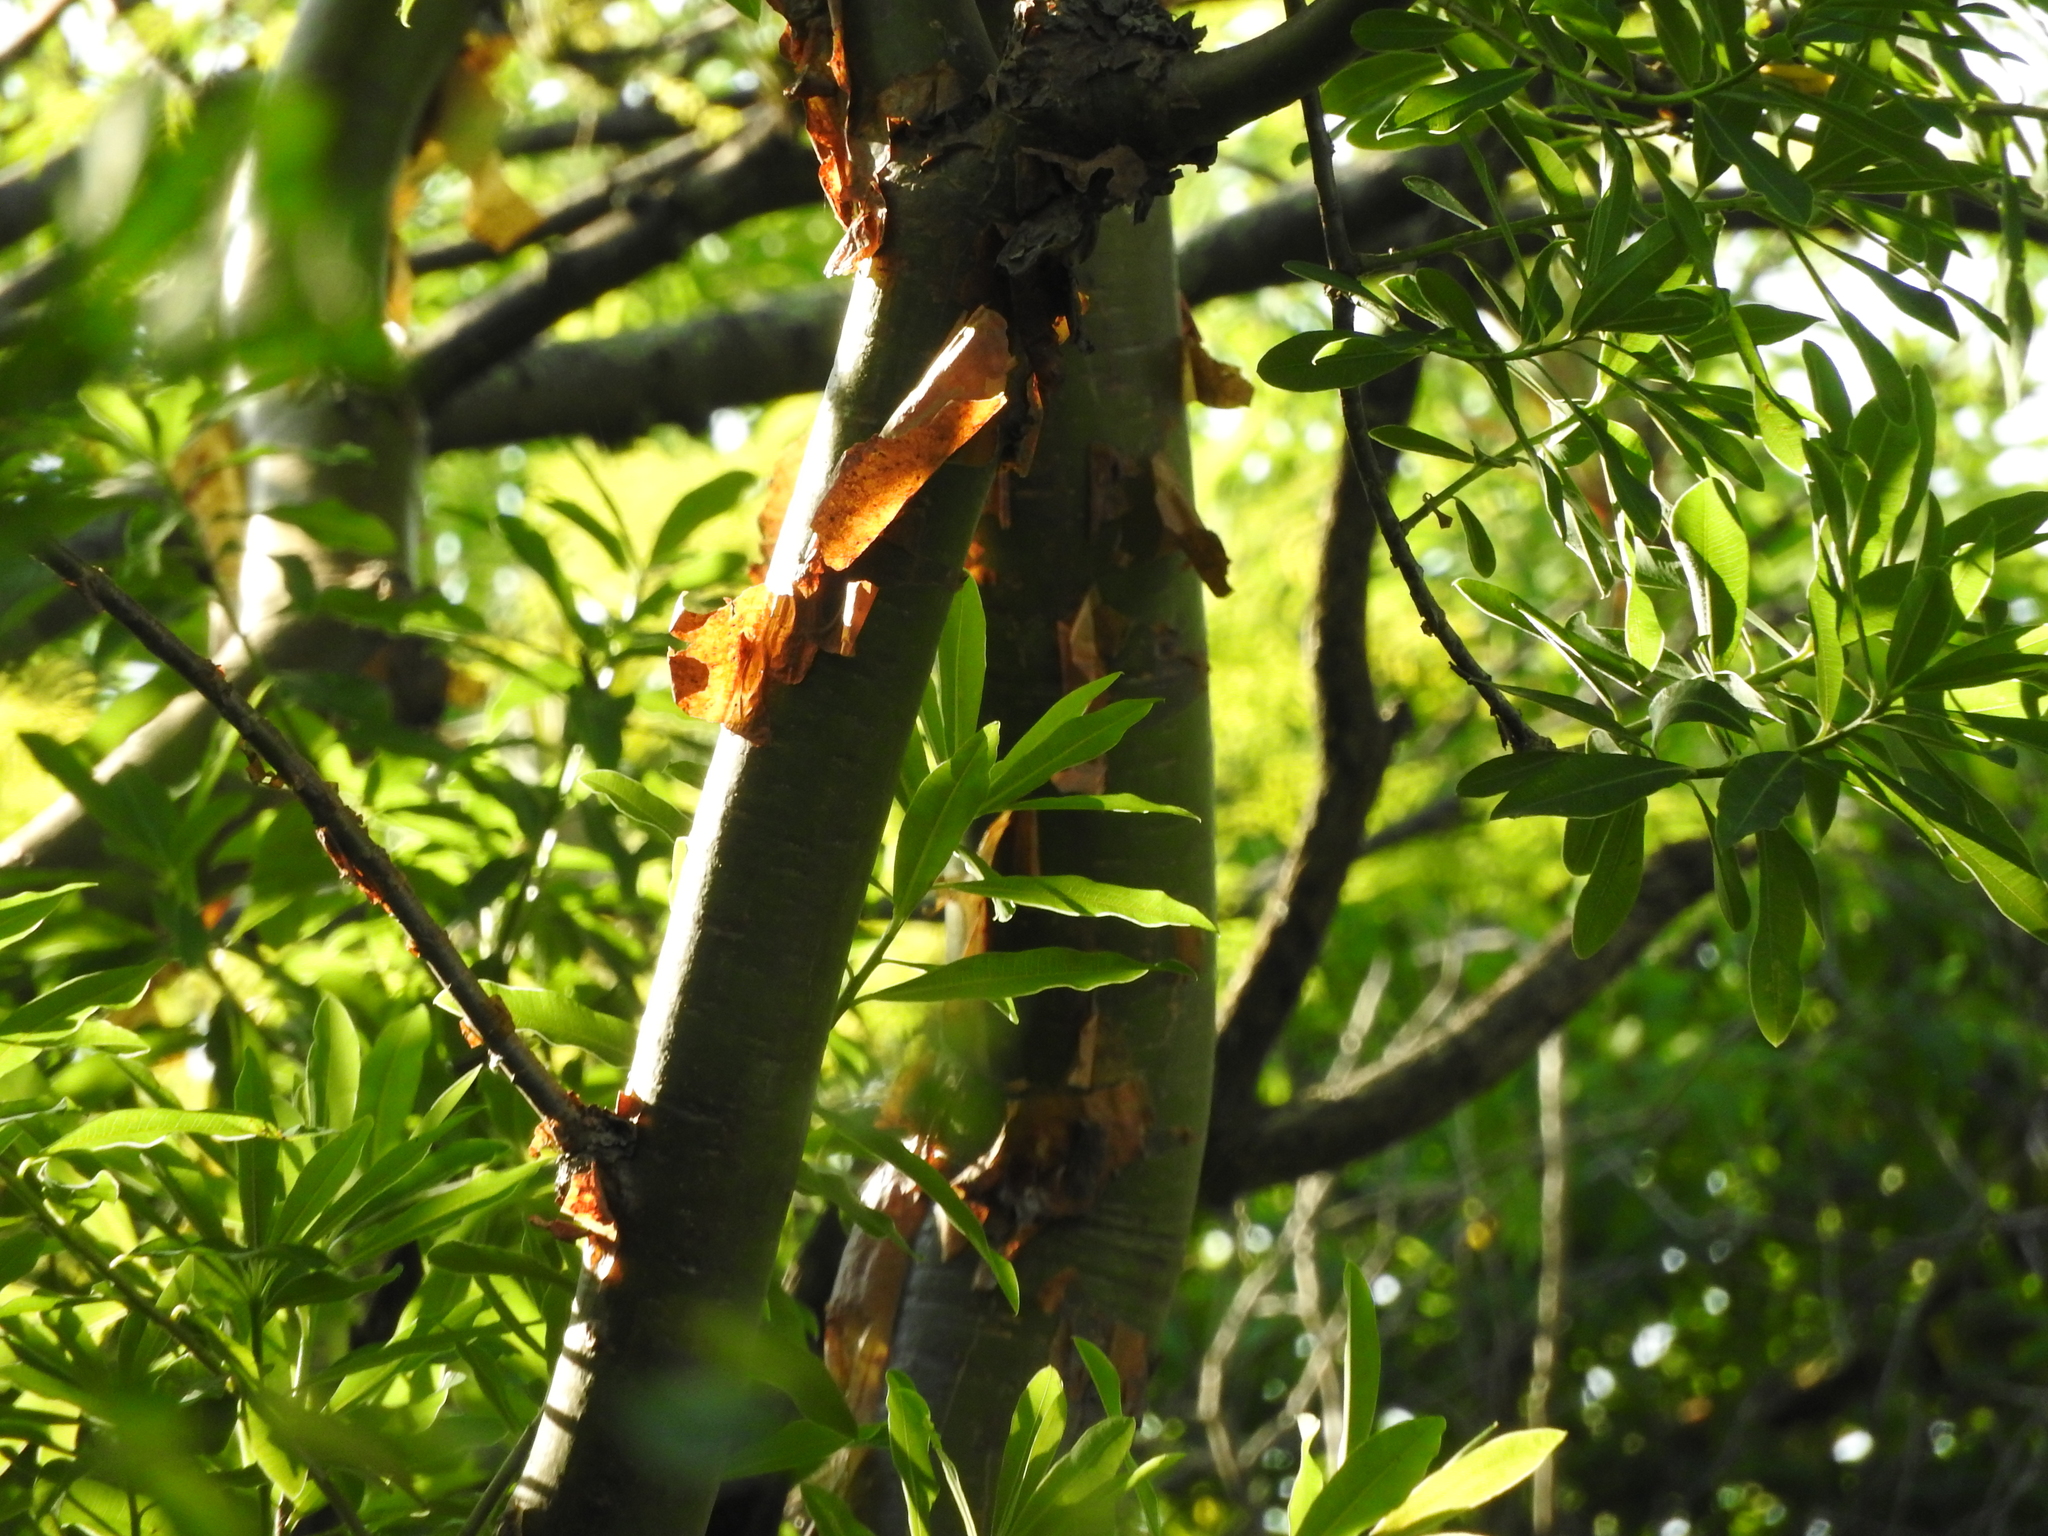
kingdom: Plantae
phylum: Tracheophyta
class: Magnoliopsida
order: Sapindales
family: Burseraceae
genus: Bursera
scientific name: Bursera simaruba
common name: Turpentine tree
